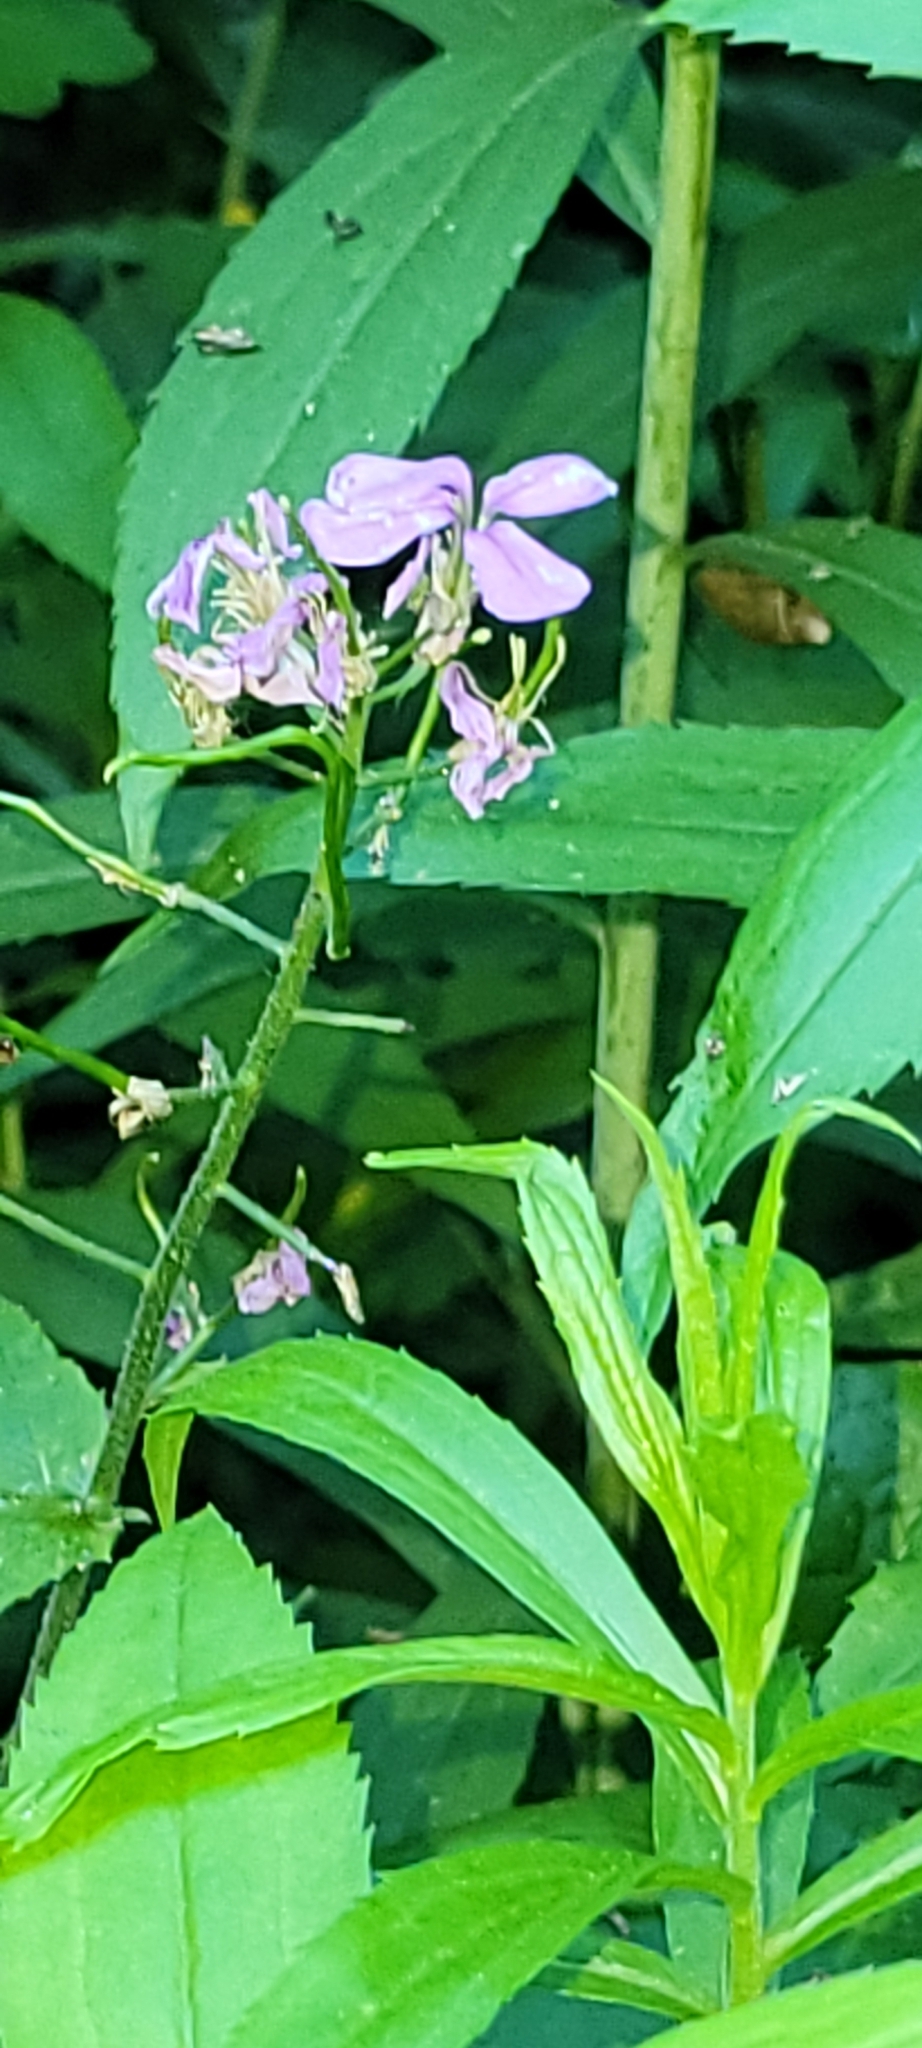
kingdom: Plantae
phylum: Tracheophyta
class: Magnoliopsida
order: Brassicales
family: Brassicaceae
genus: Hesperis
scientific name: Hesperis matronalis
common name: Dame's-violet
